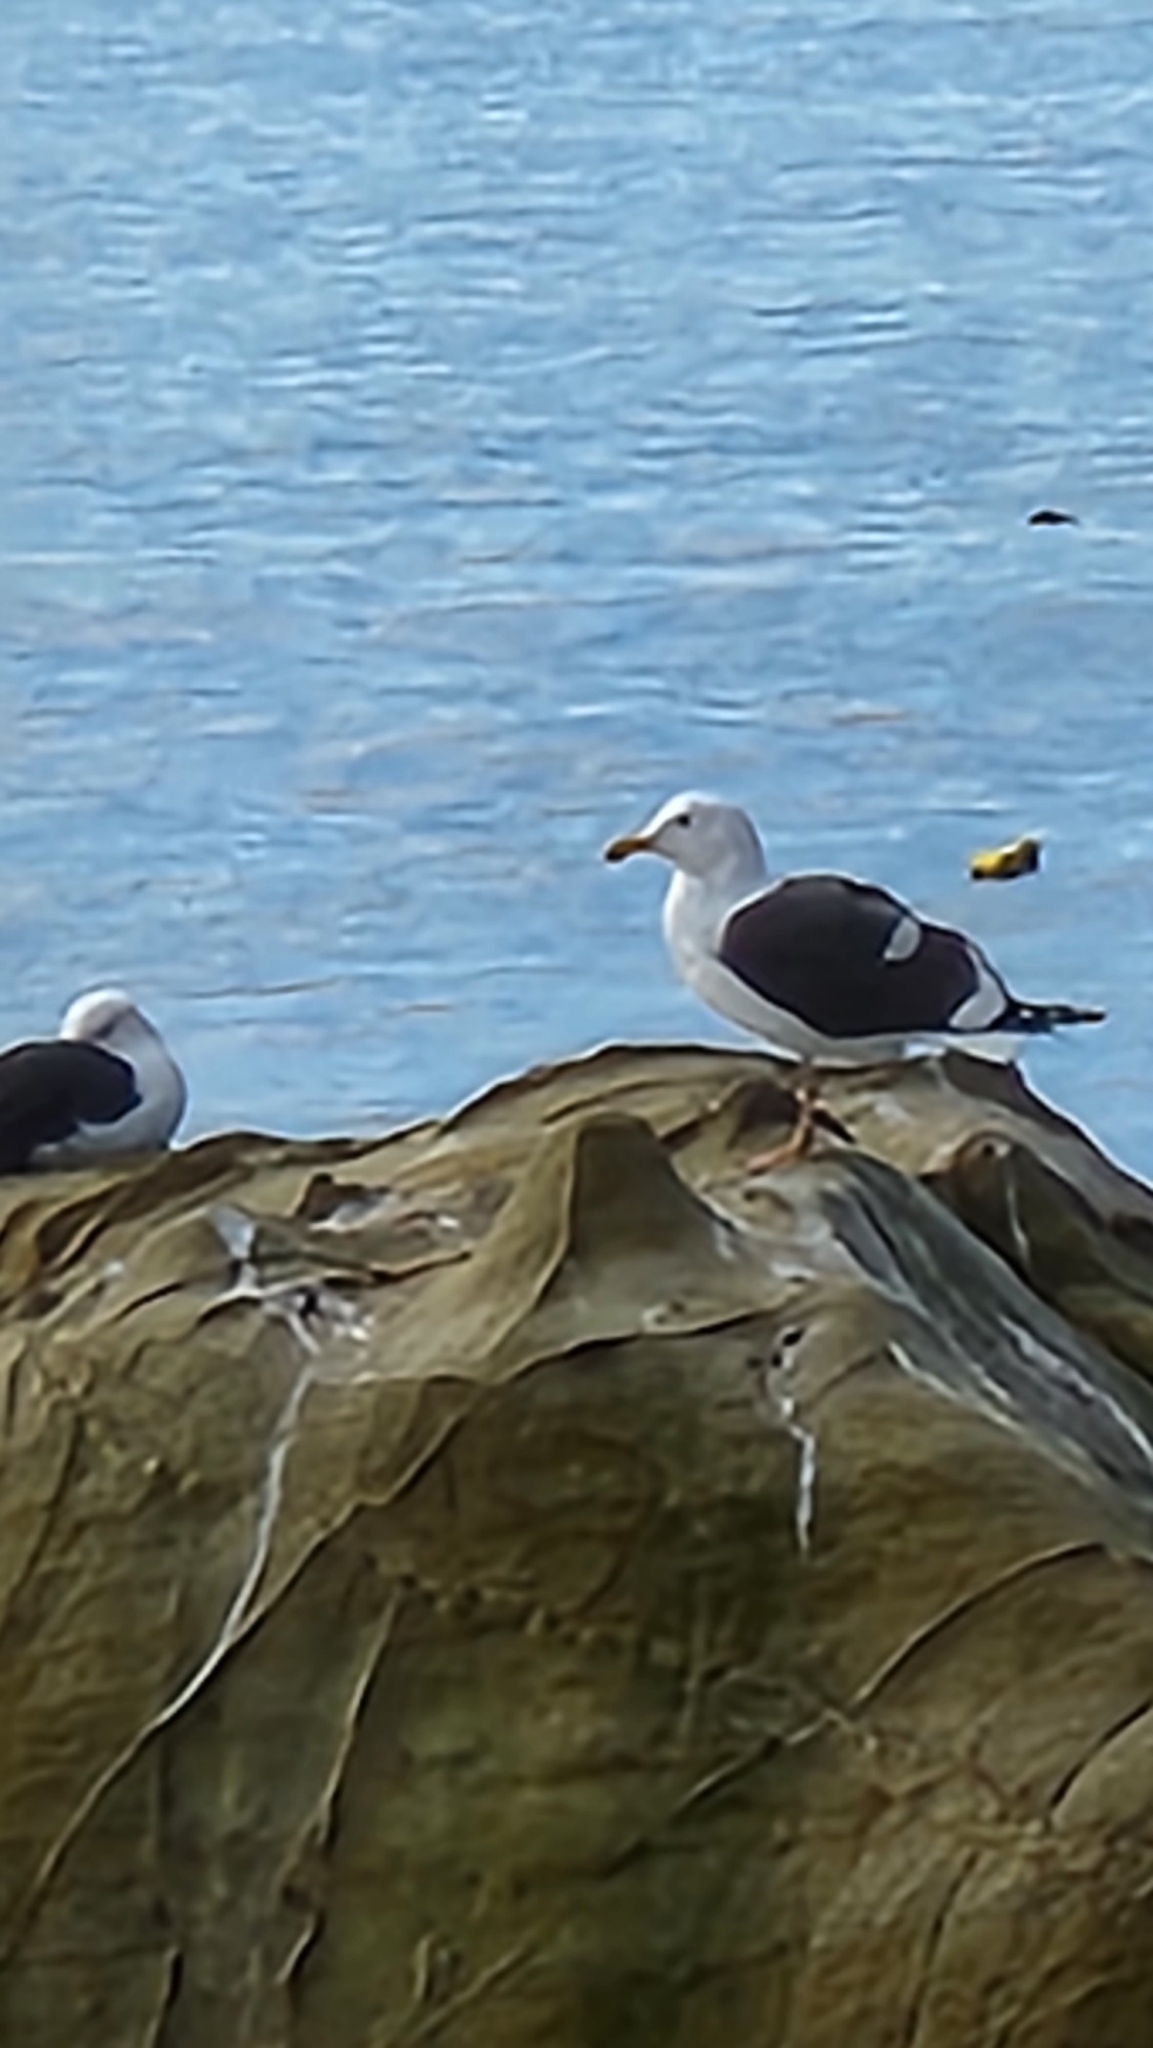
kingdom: Animalia
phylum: Chordata
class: Aves
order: Charadriiformes
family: Laridae
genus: Larus
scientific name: Larus occidentalis
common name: Western gull
